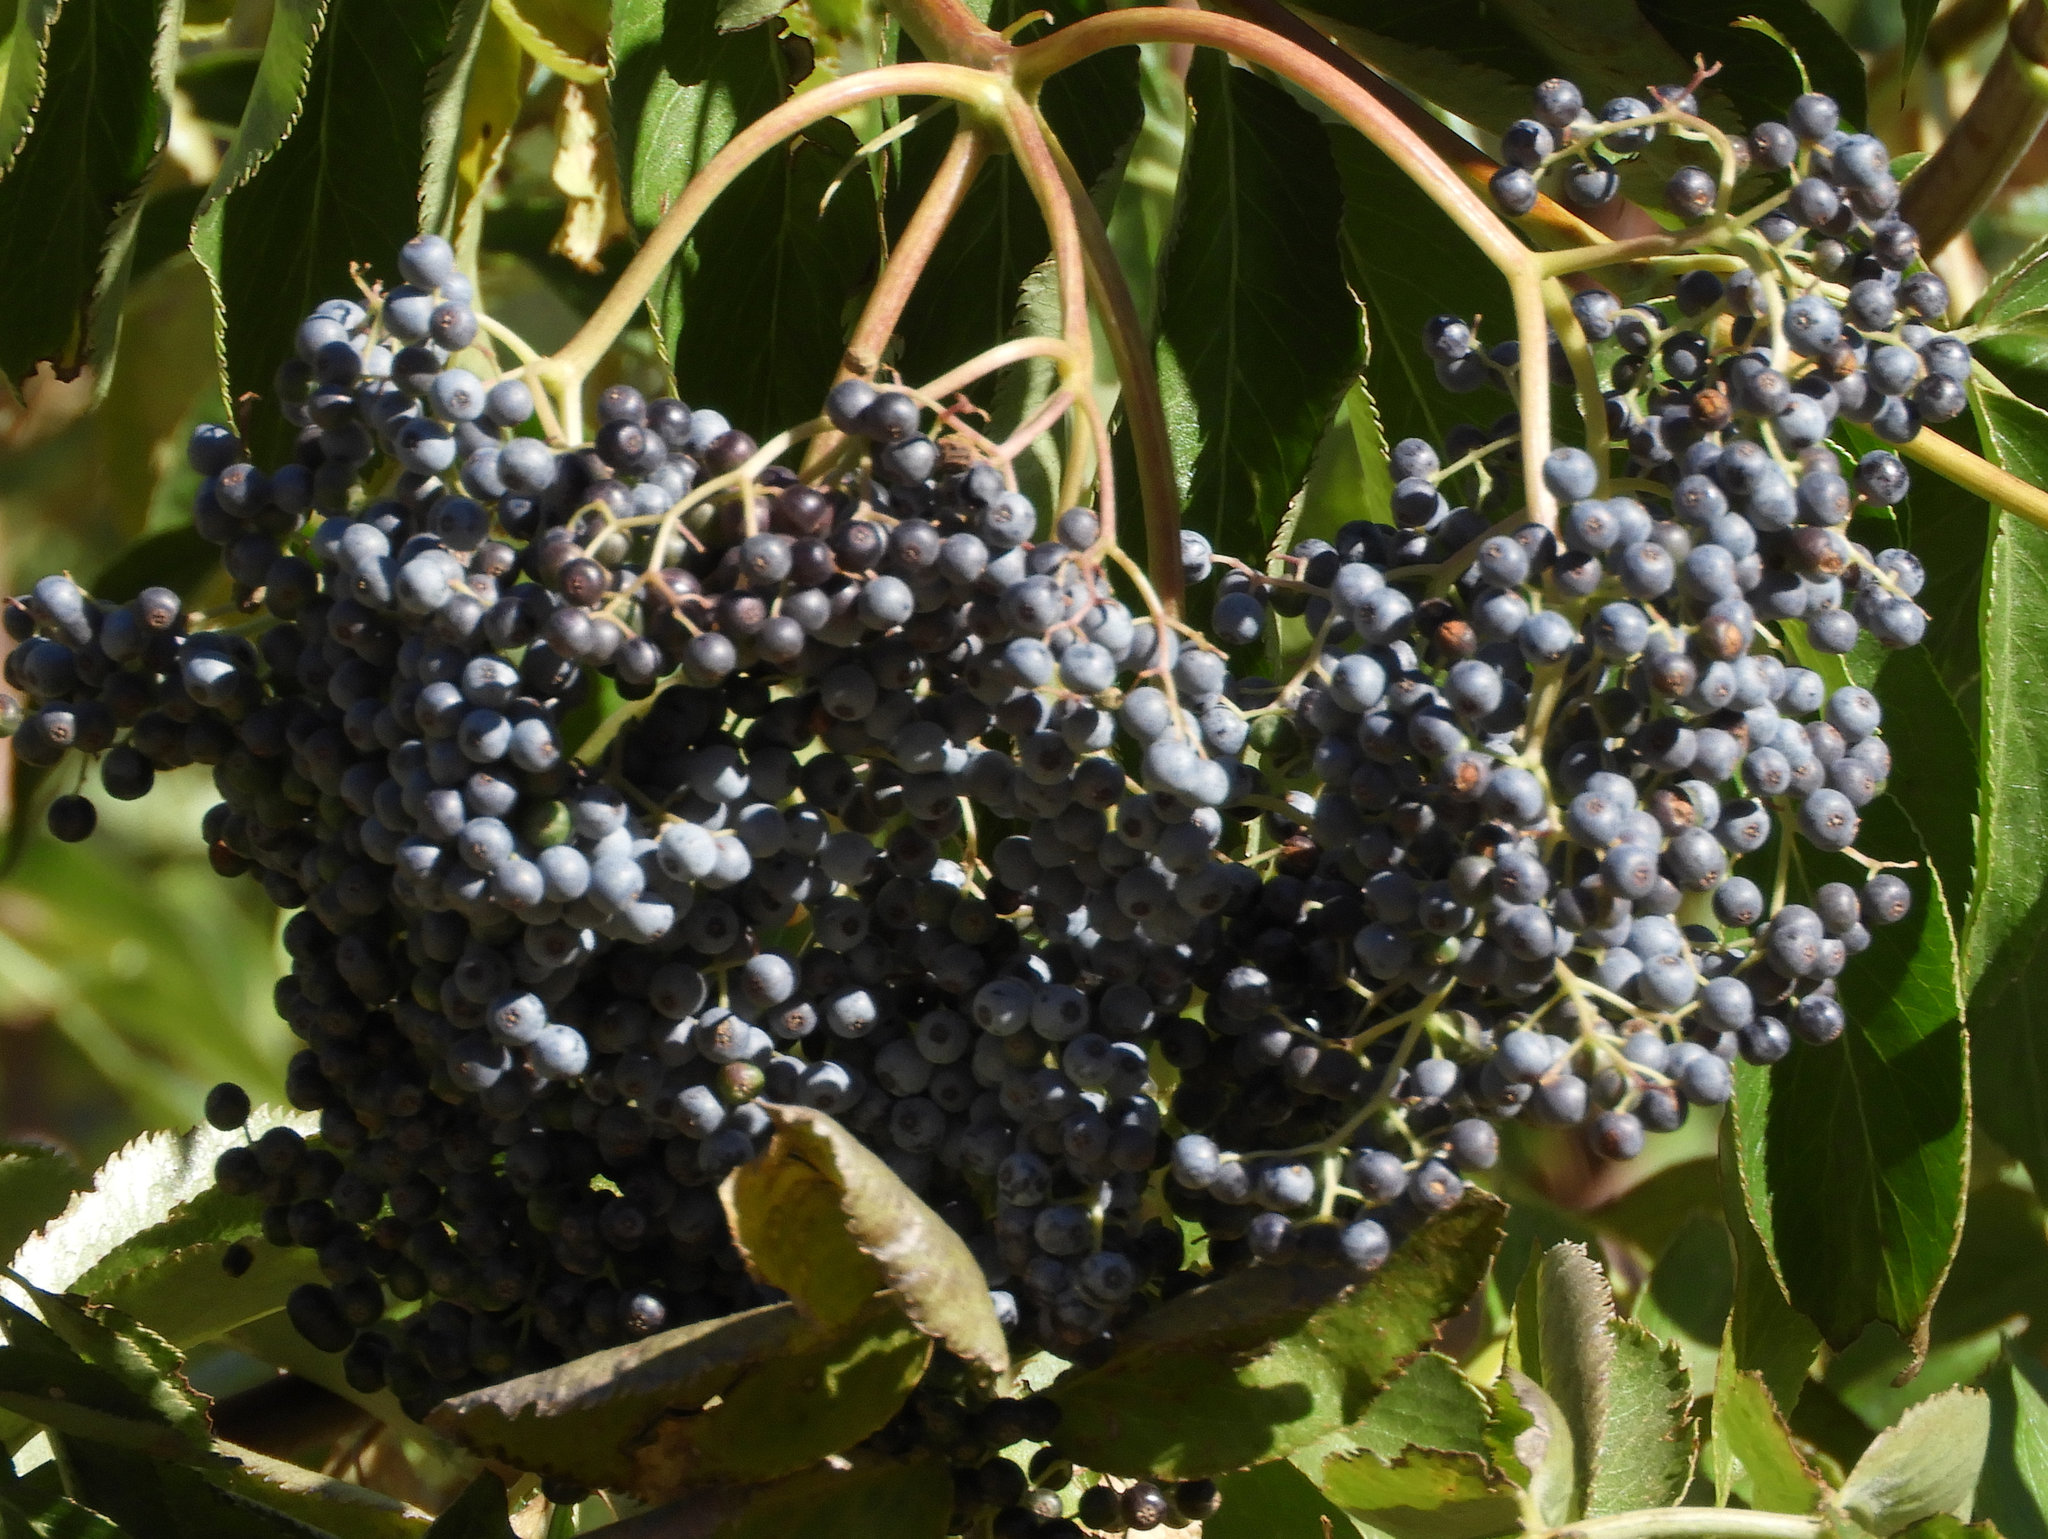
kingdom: Plantae
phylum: Tracheophyta
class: Magnoliopsida
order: Dipsacales
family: Viburnaceae
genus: Sambucus
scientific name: Sambucus cerulea
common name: Blue elder
